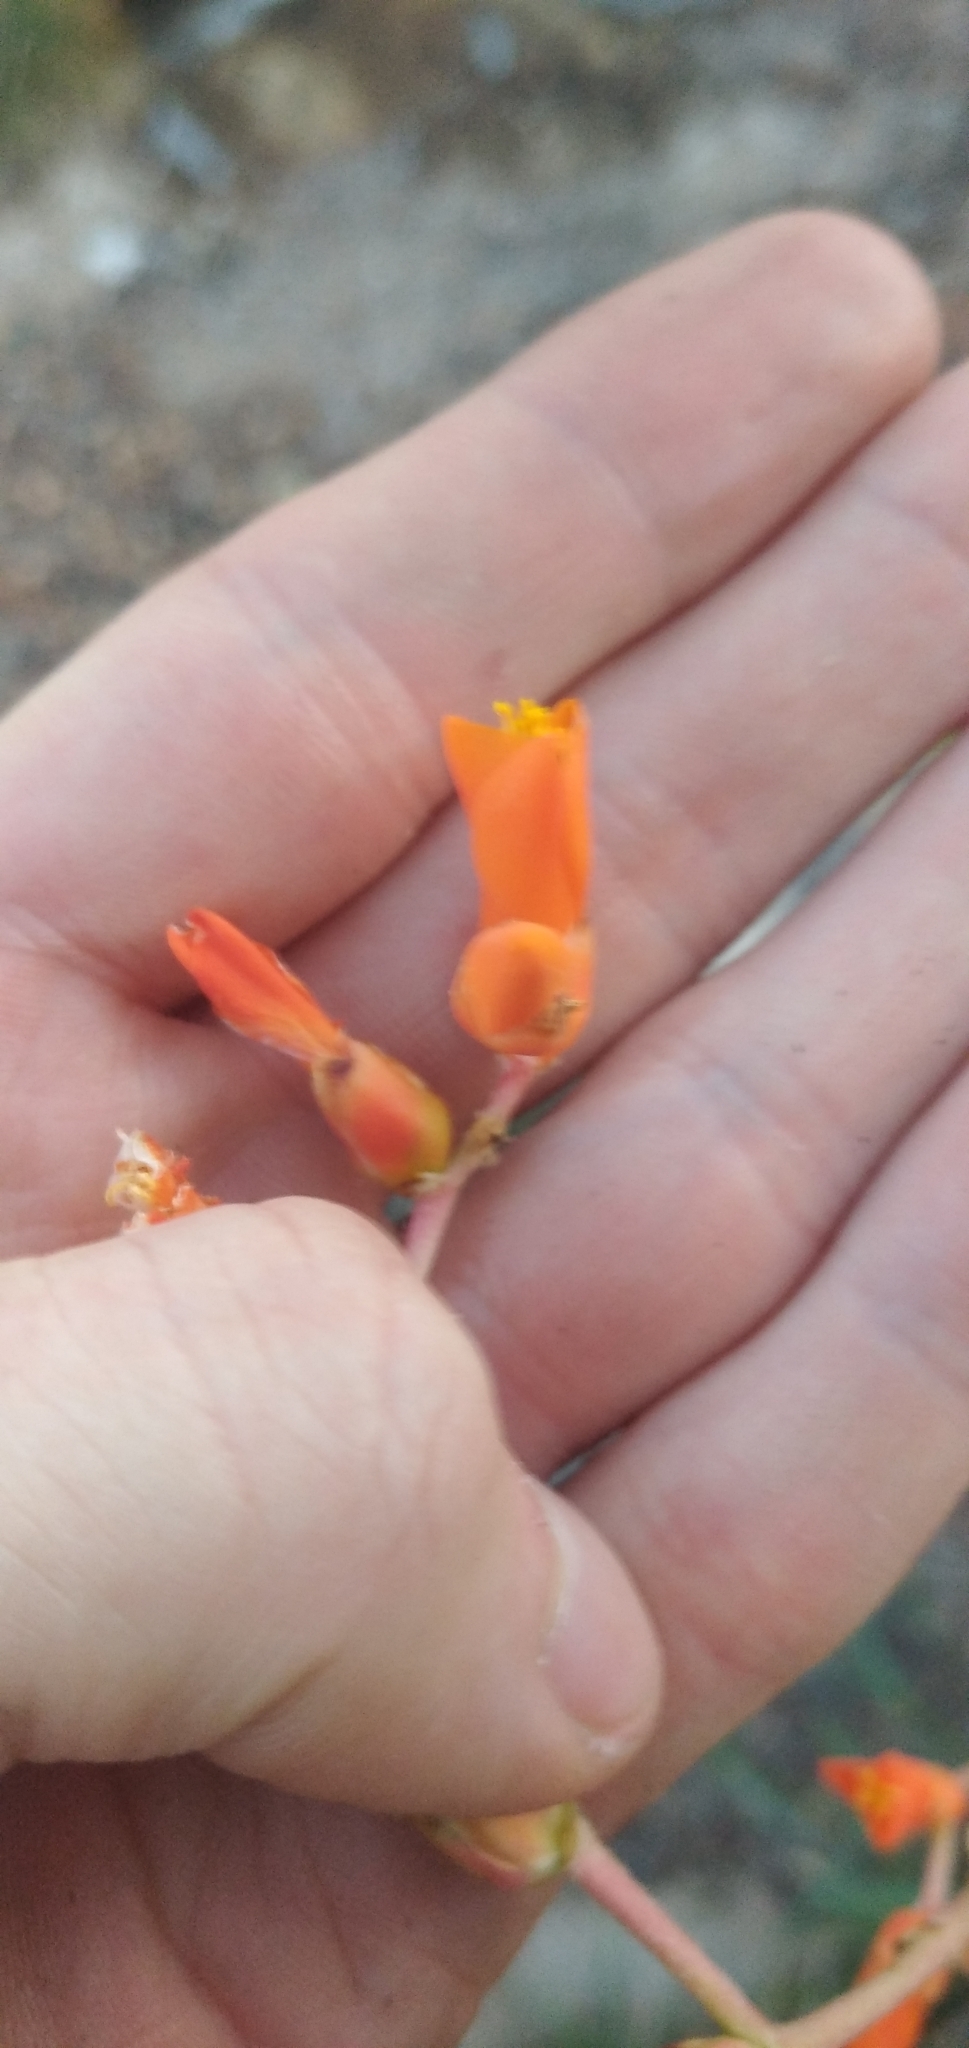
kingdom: Plantae
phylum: Tracheophyta
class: Liliopsida
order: Poales
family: Bromeliaceae
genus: Dyckia
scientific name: Dyckia remotiflora
